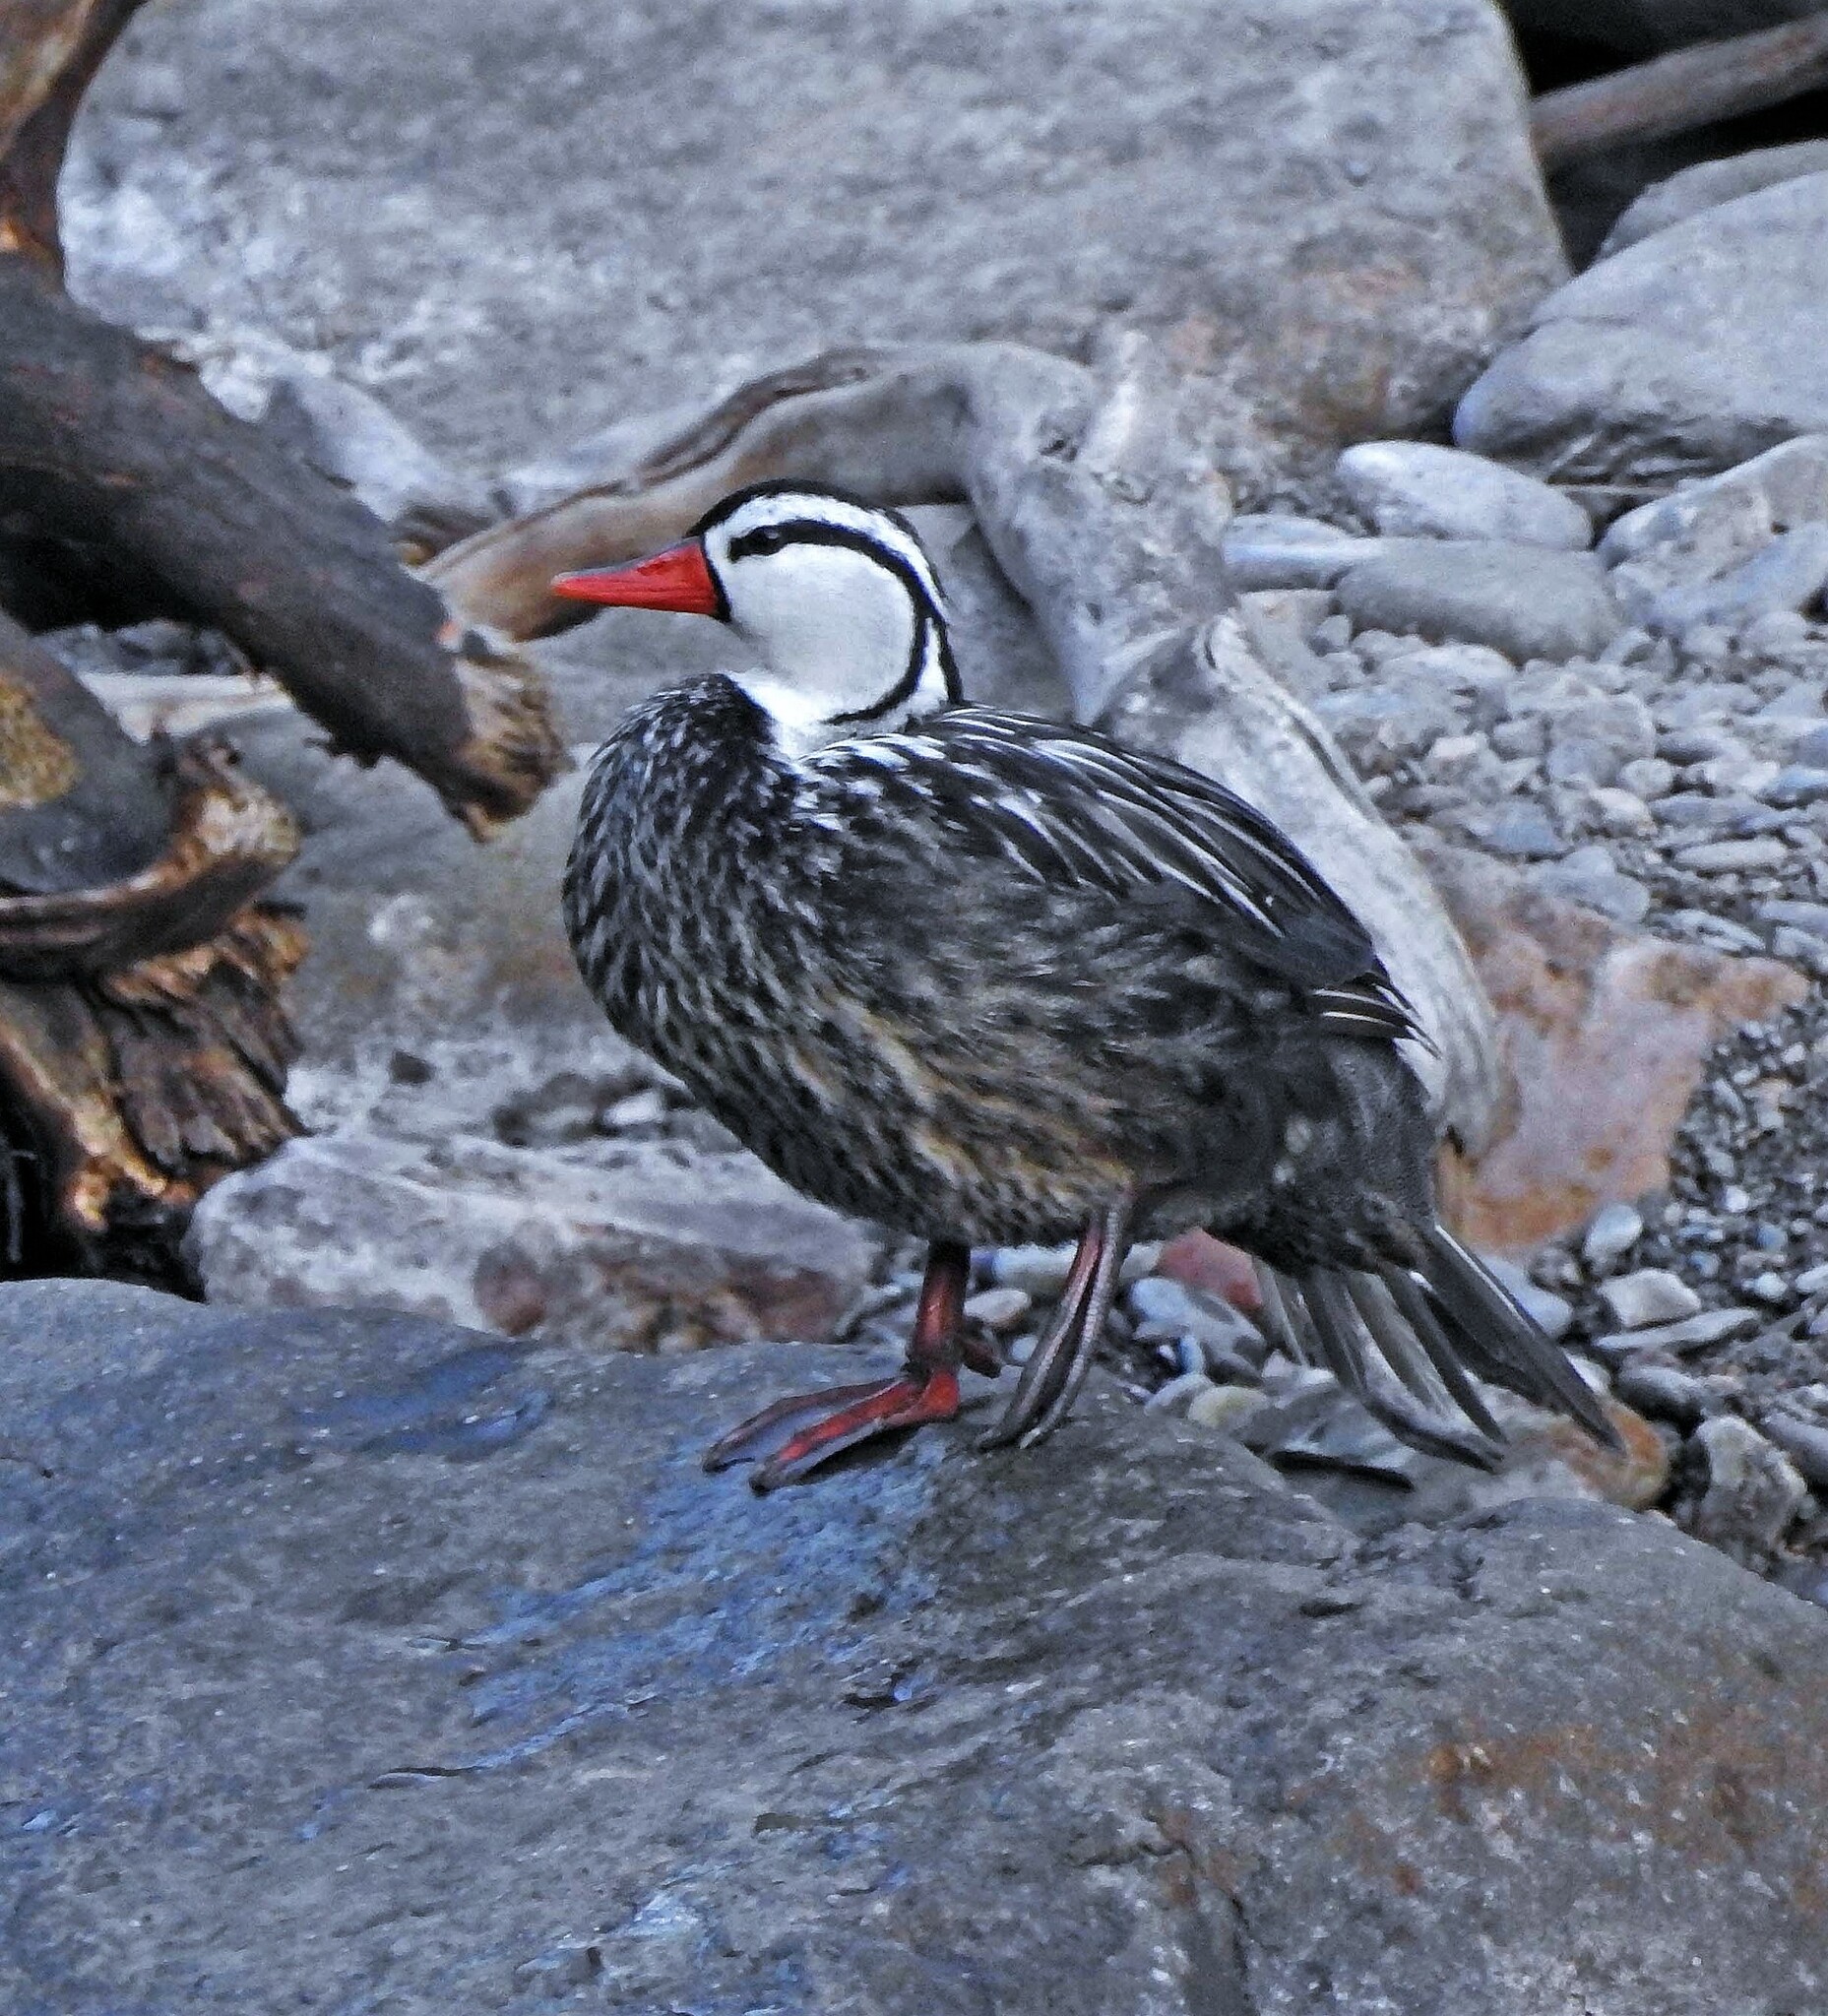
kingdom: Animalia
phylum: Chordata
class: Aves
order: Anseriformes
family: Anatidae
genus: Merganetta
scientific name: Merganetta armata
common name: Torrent duck
